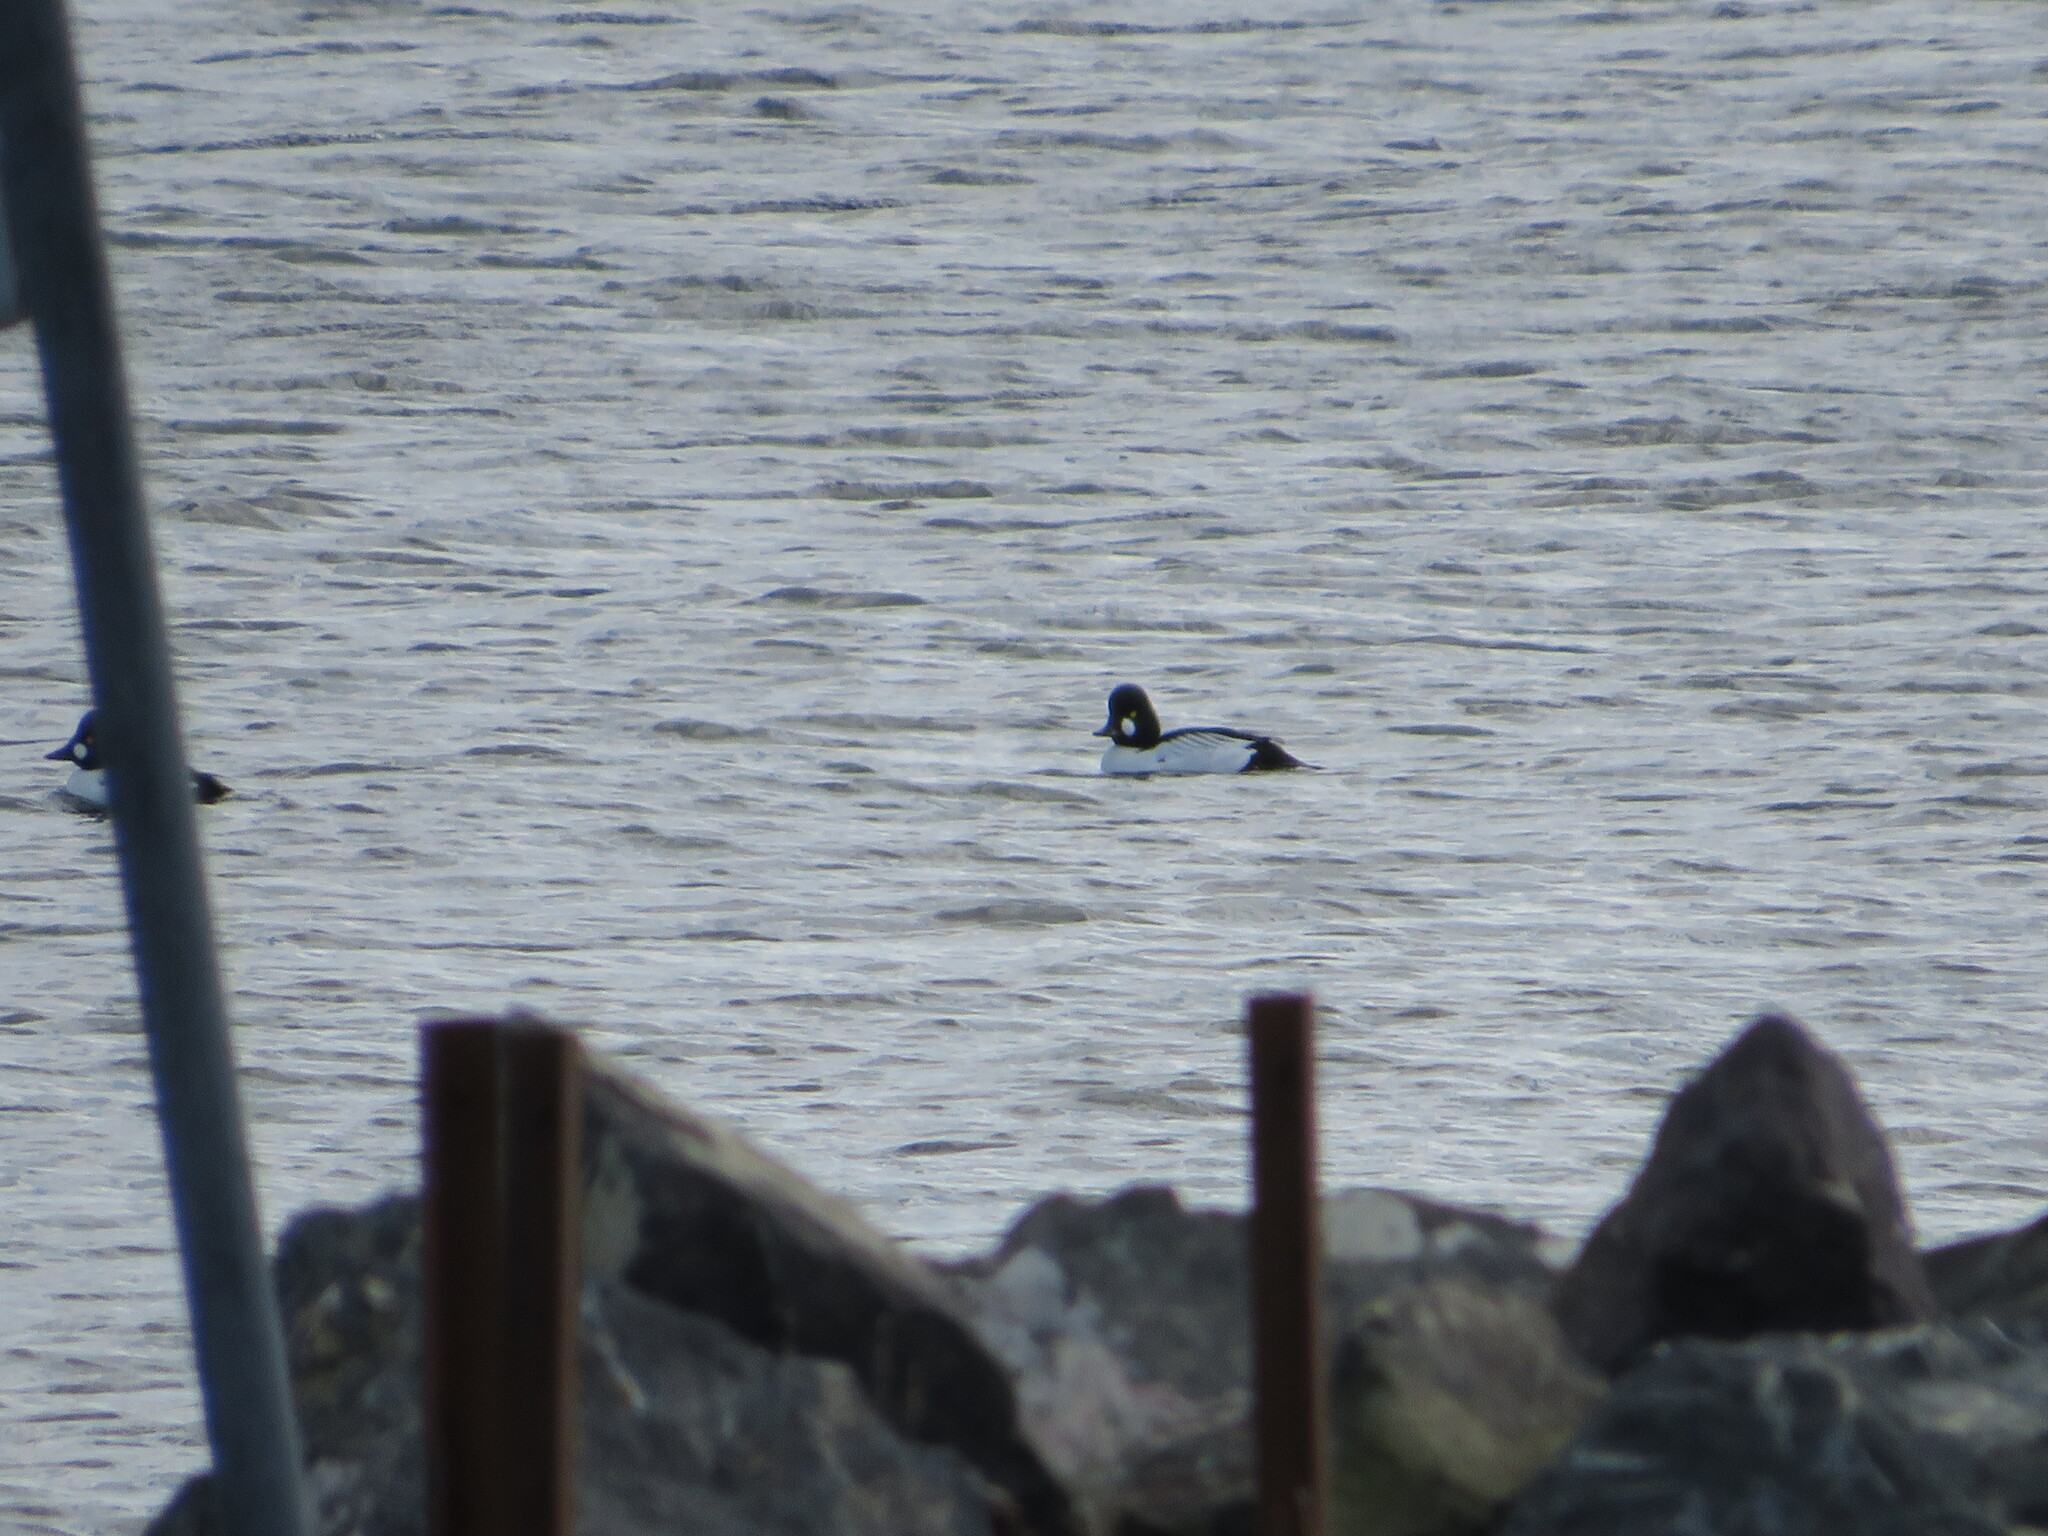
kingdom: Animalia
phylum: Chordata
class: Aves
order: Anseriformes
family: Anatidae
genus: Bucephala
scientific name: Bucephala clangula
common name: Common goldeneye
